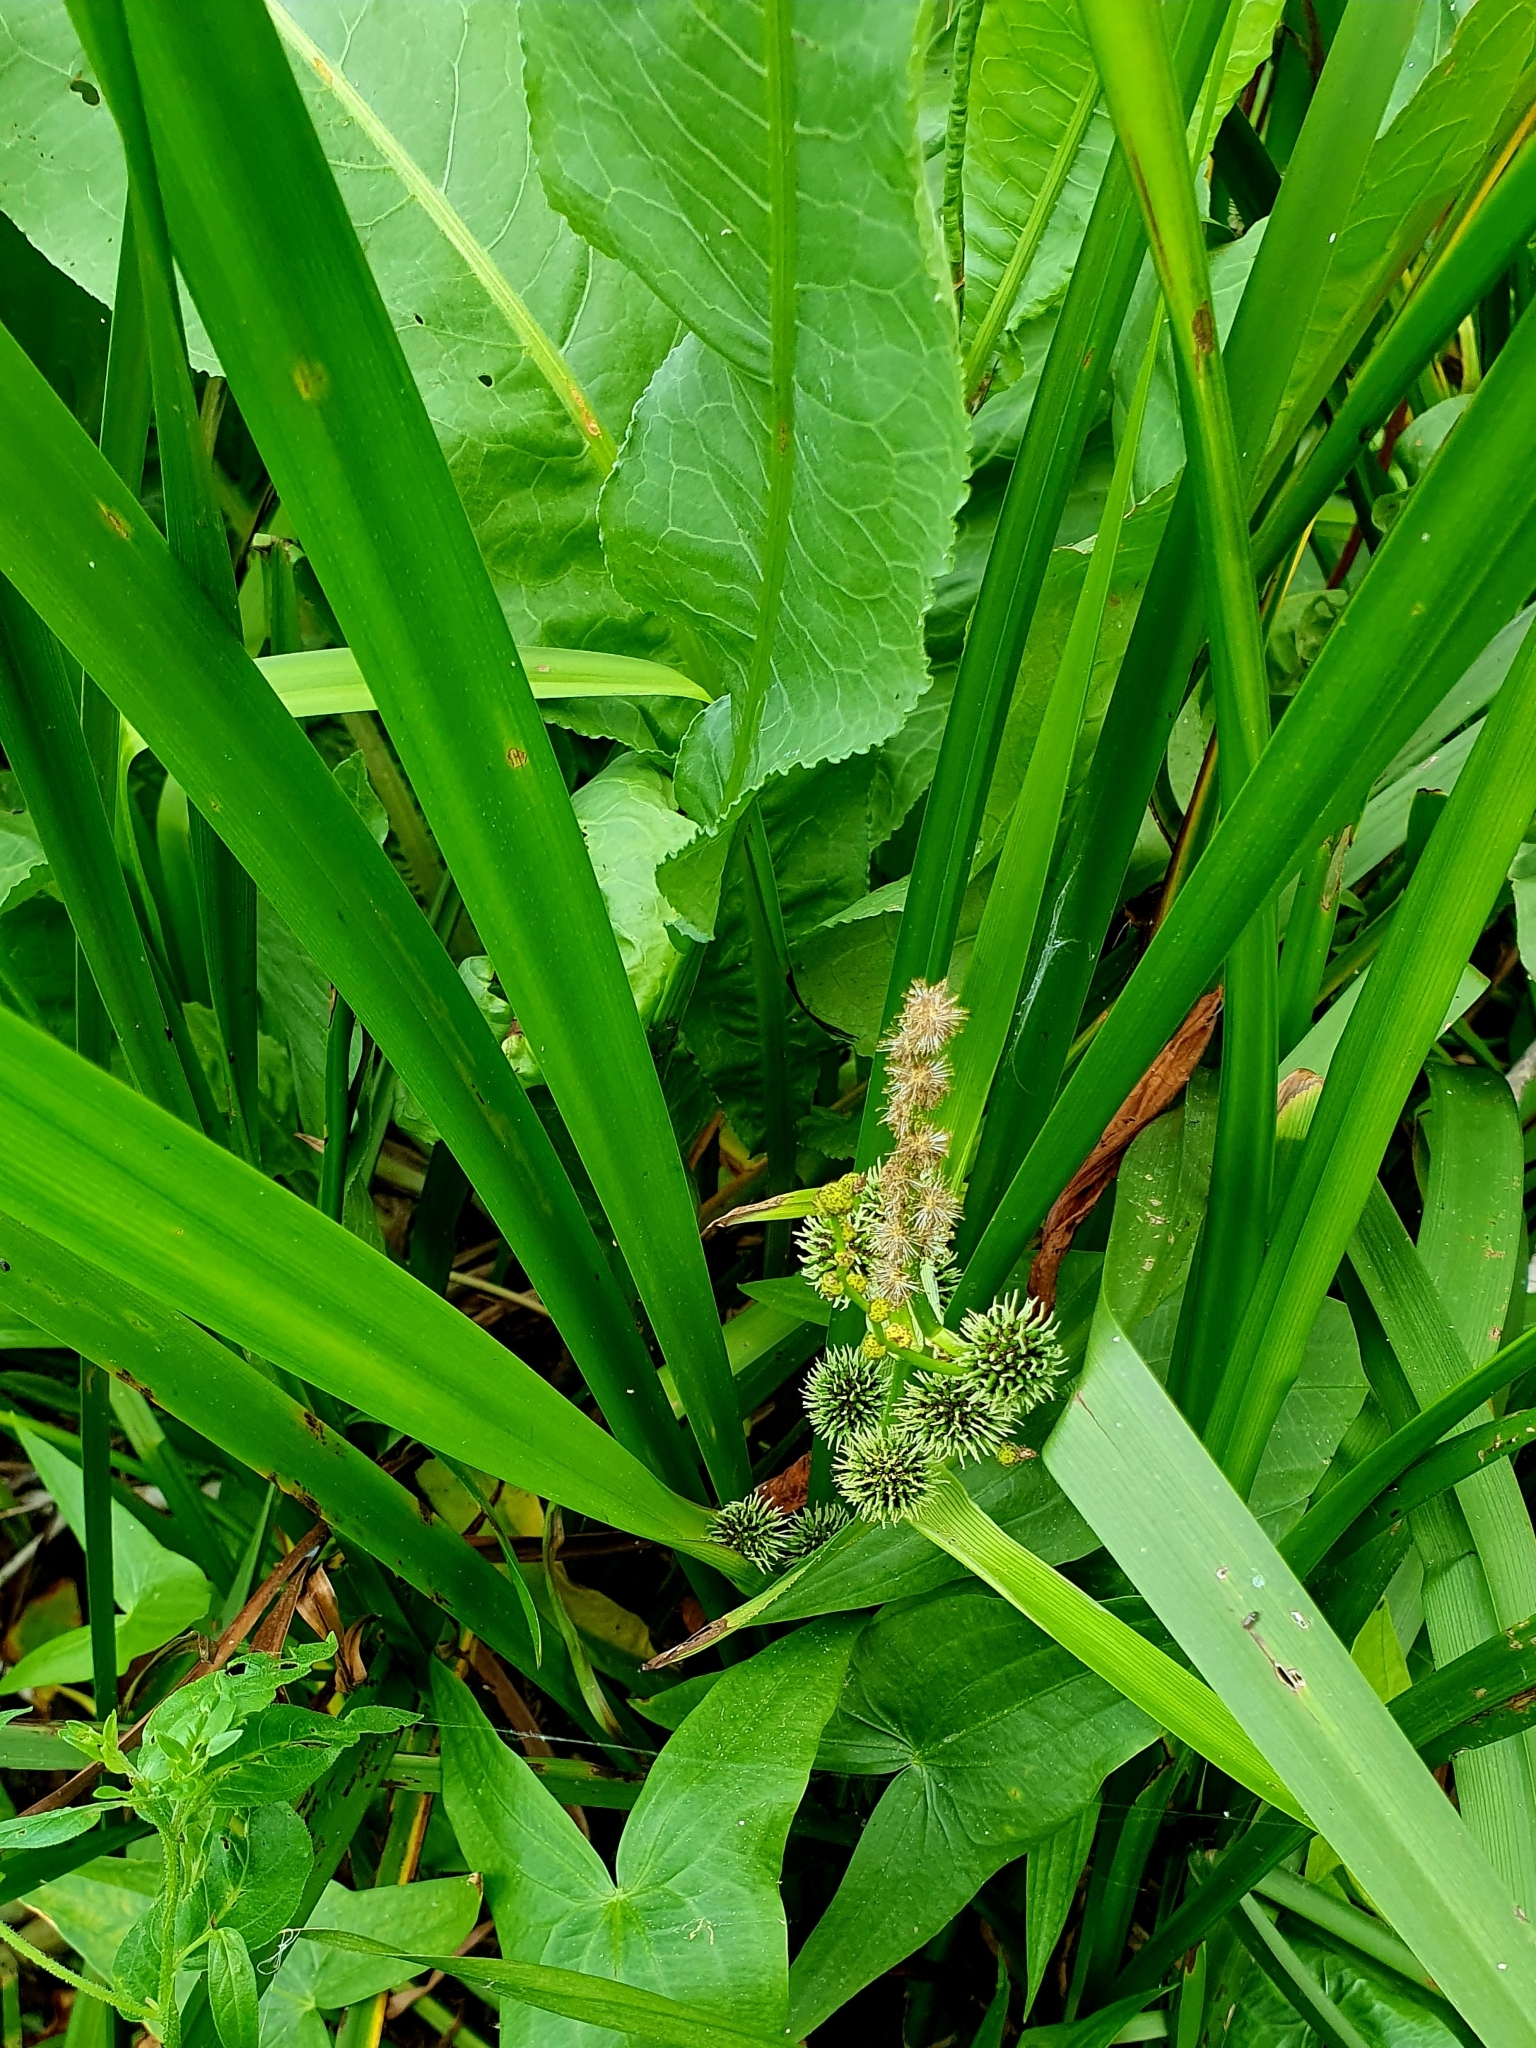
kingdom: Plantae
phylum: Tracheophyta
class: Liliopsida
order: Poales
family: Typhaceae
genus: Sparganium
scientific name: Sparganium erectum
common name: Branched bur-reed
